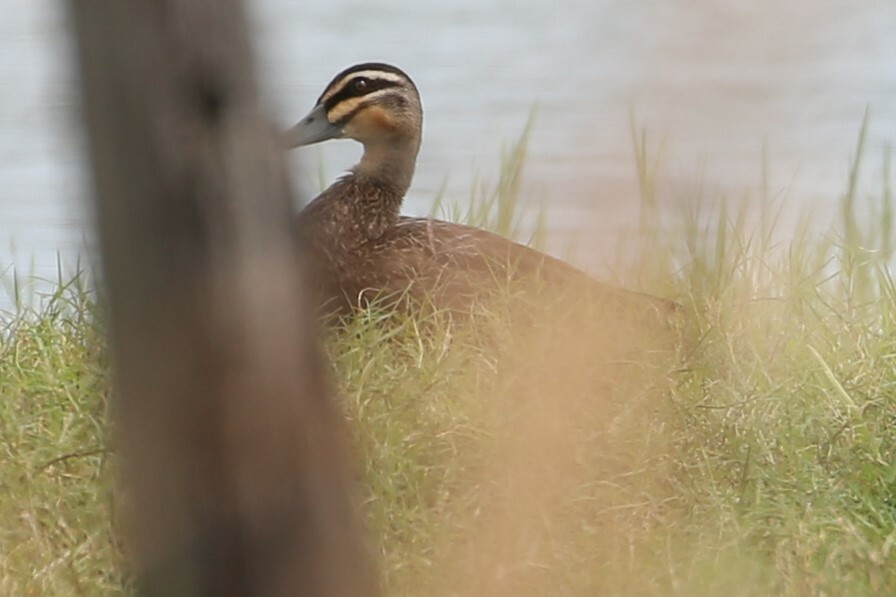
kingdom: Animalia
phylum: Chordata
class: Aves
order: Anseriformes
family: Anatidae
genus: Anas
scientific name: Anas superciliosa
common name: Pacific black duck
